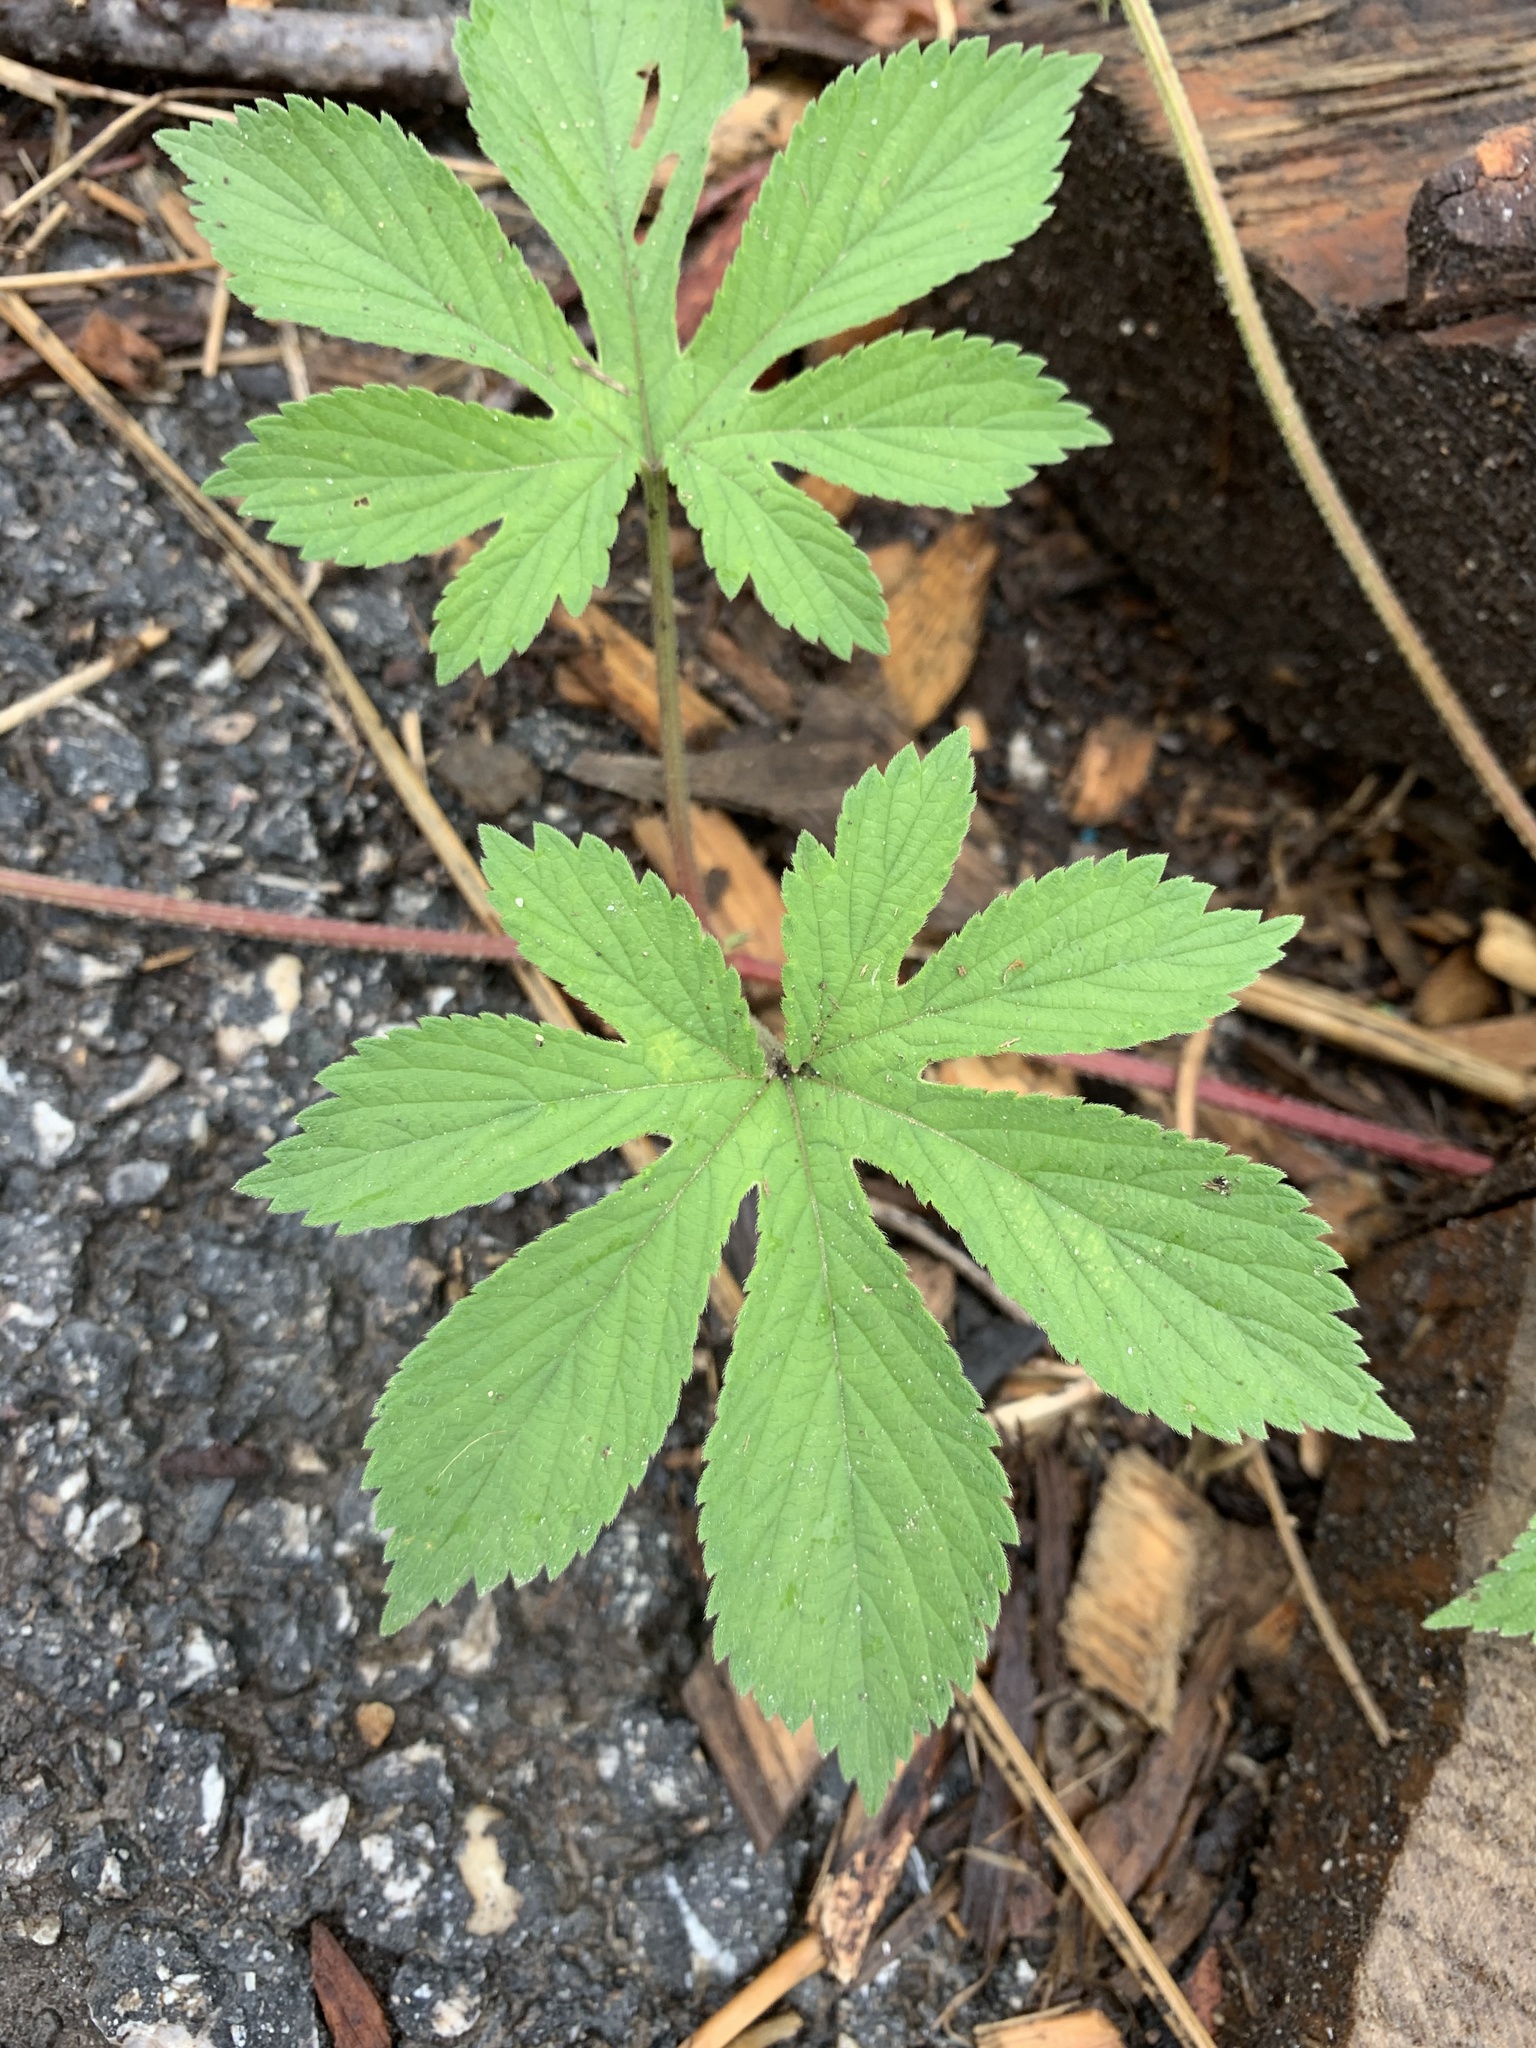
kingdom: Plantae
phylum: Tracheophyta
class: Magnoliopsida
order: Rosales
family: Cannabaceae
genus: Humulus
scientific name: Humulus scandens
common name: Japanese hop
